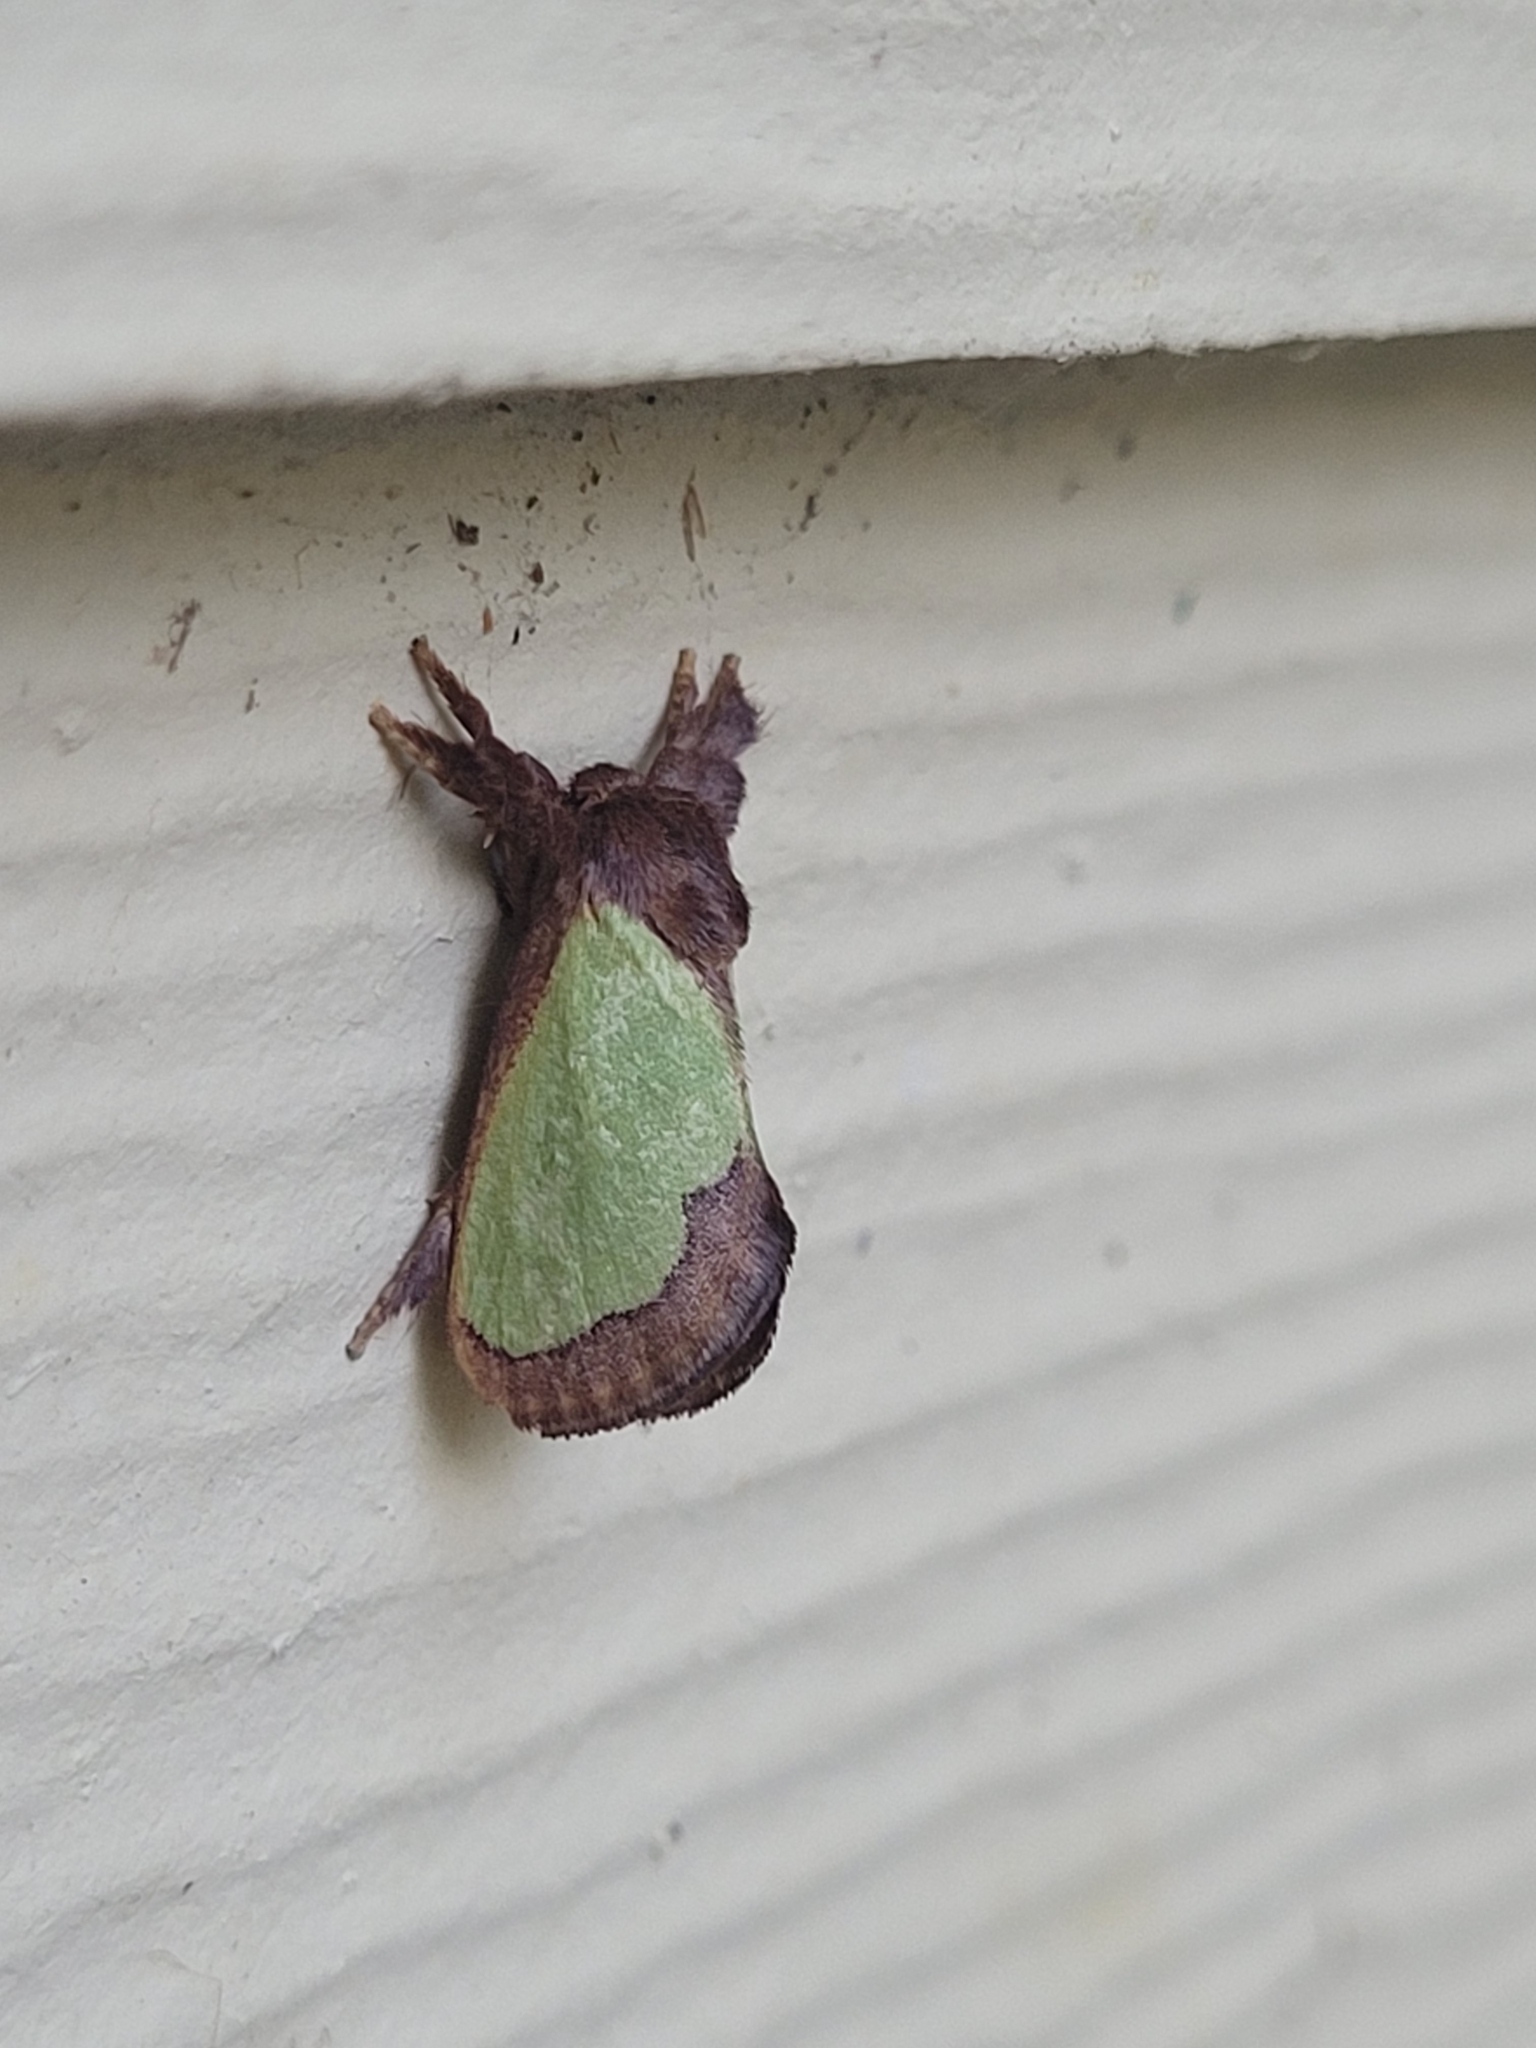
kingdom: Animalia
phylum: Arthropoda
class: Insecta
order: Lepidoptera
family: Limacodidae
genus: Euclea
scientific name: Euclea incisa
